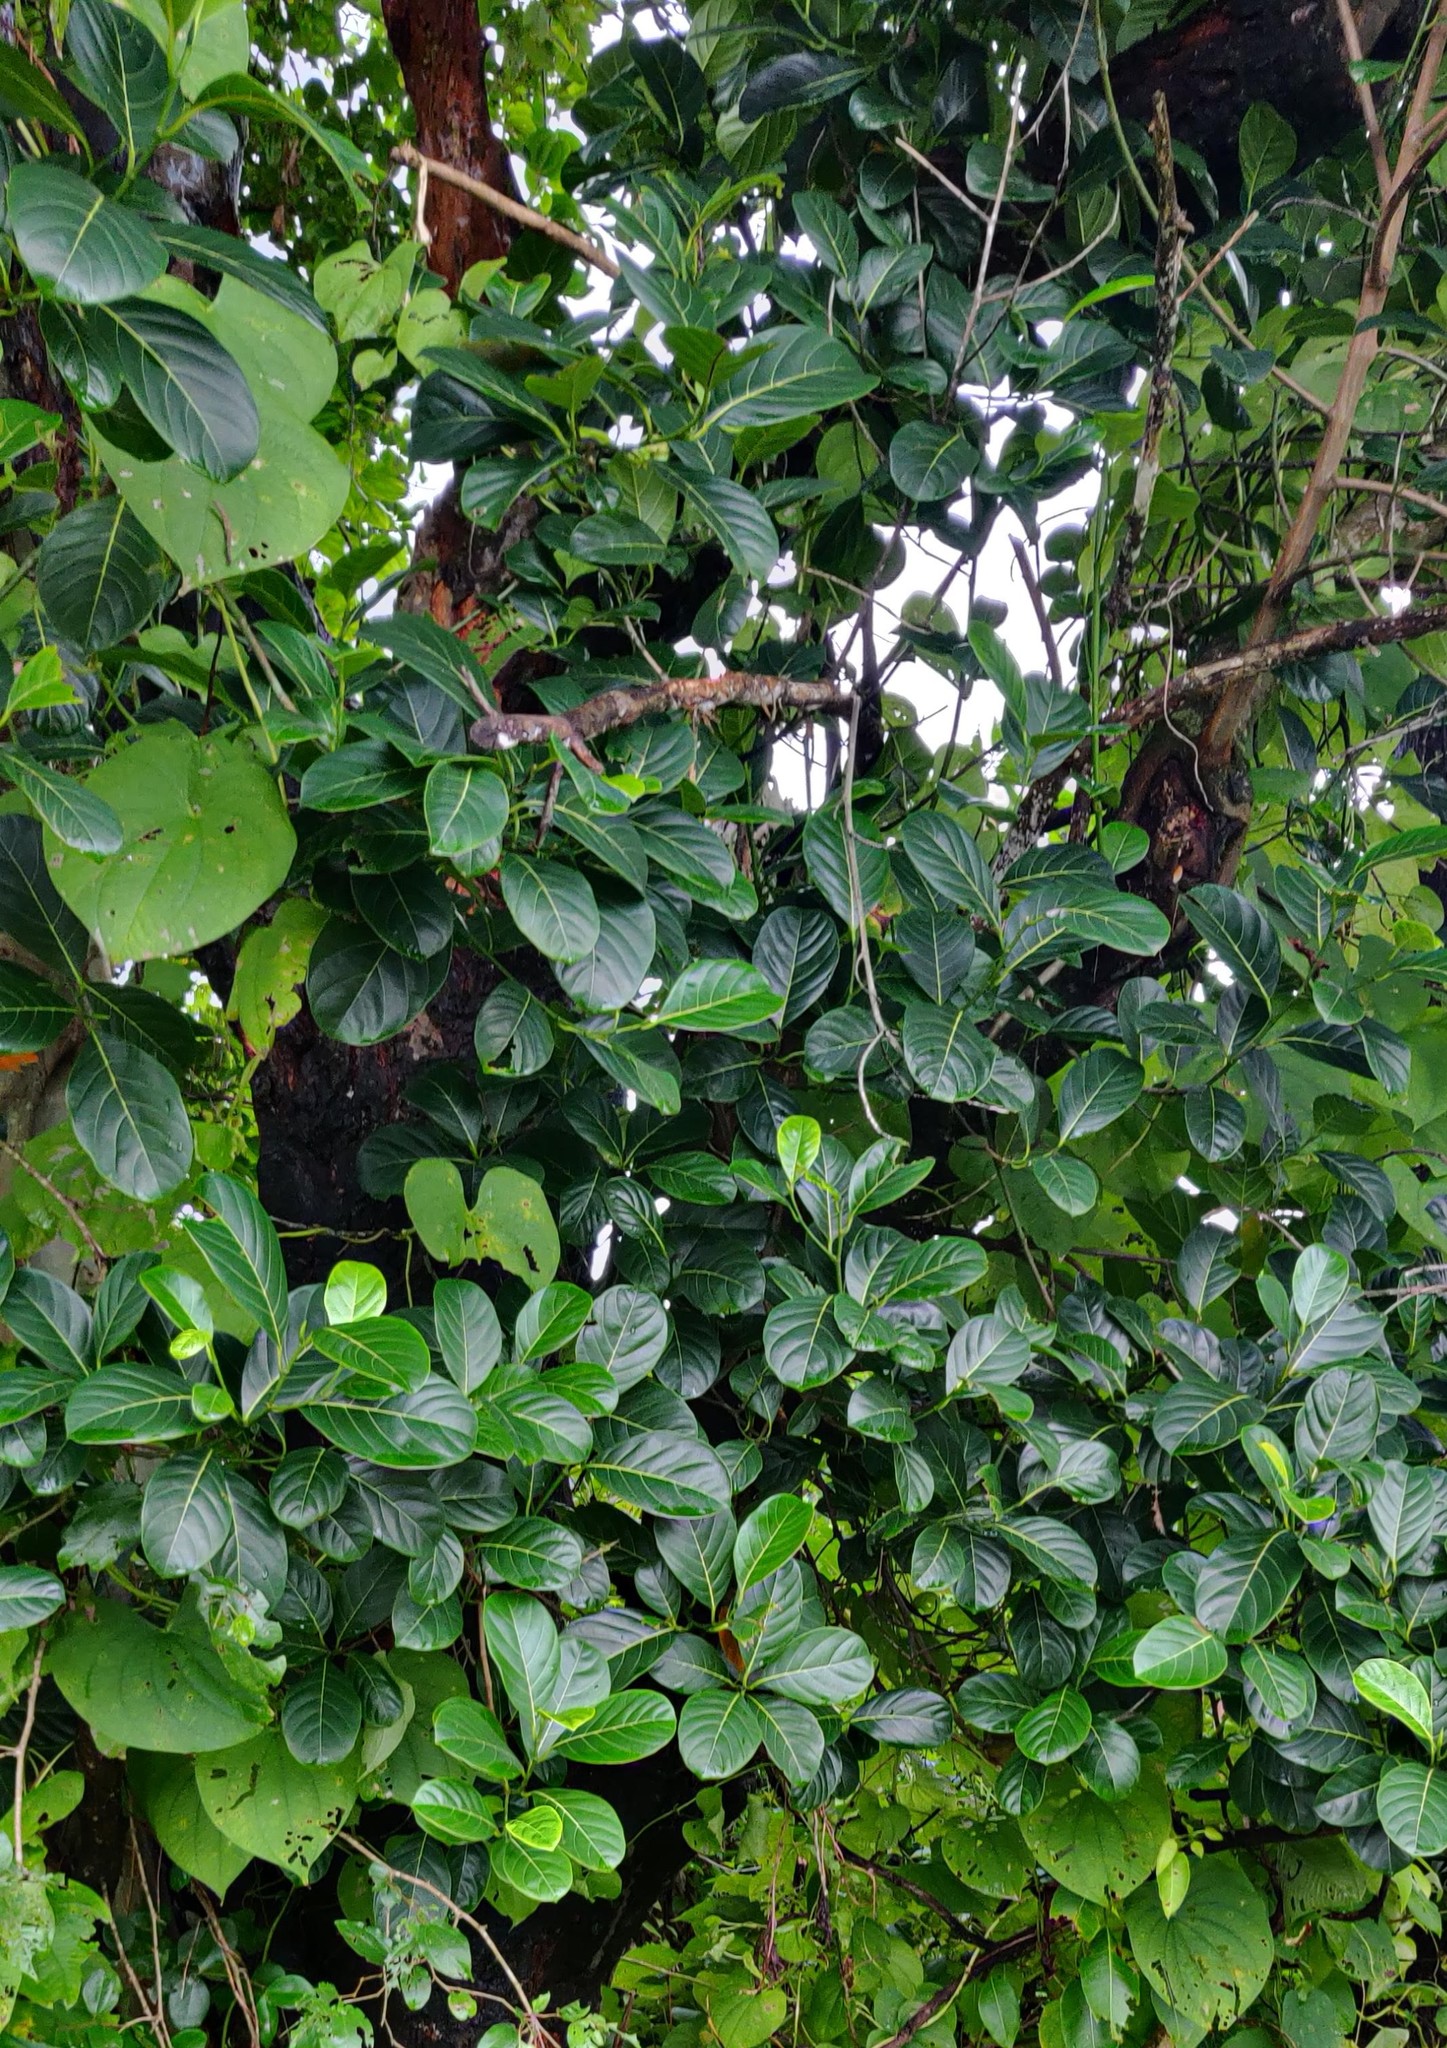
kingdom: Plantae
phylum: Tracheophyta
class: Magnoliopsida
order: Rosales
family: Moraceae
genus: Artocarpus
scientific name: Artocarpus heterophyllus
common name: Jackfruit
